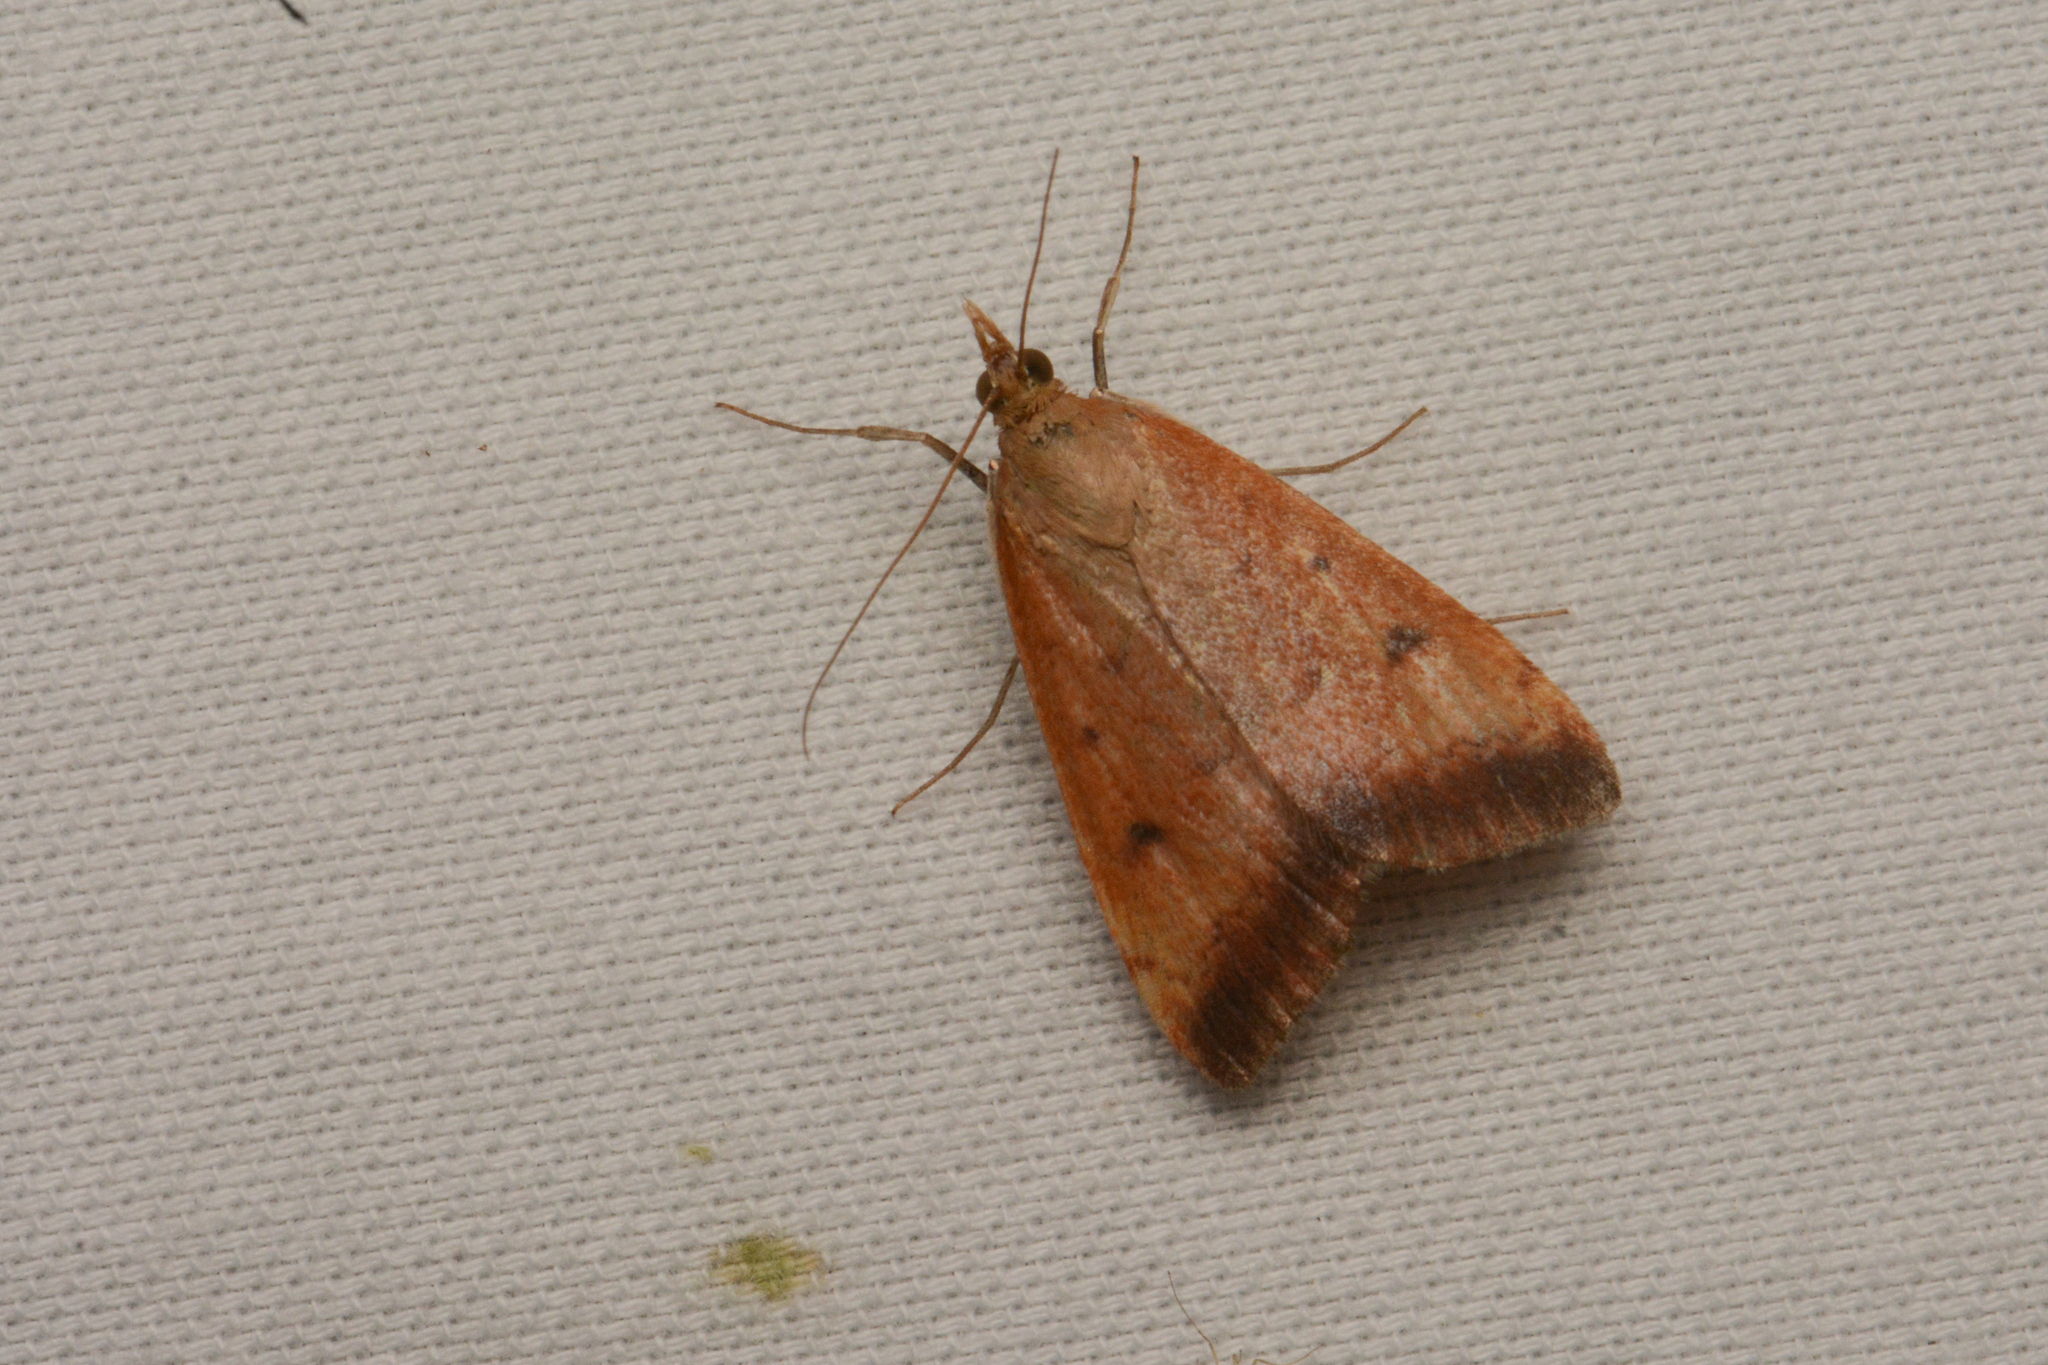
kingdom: Animalia
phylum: Arthropoda
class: Insecta
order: Lepidoptera
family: Crambidae
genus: Pyrausta
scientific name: Pyrausta fodinalis
